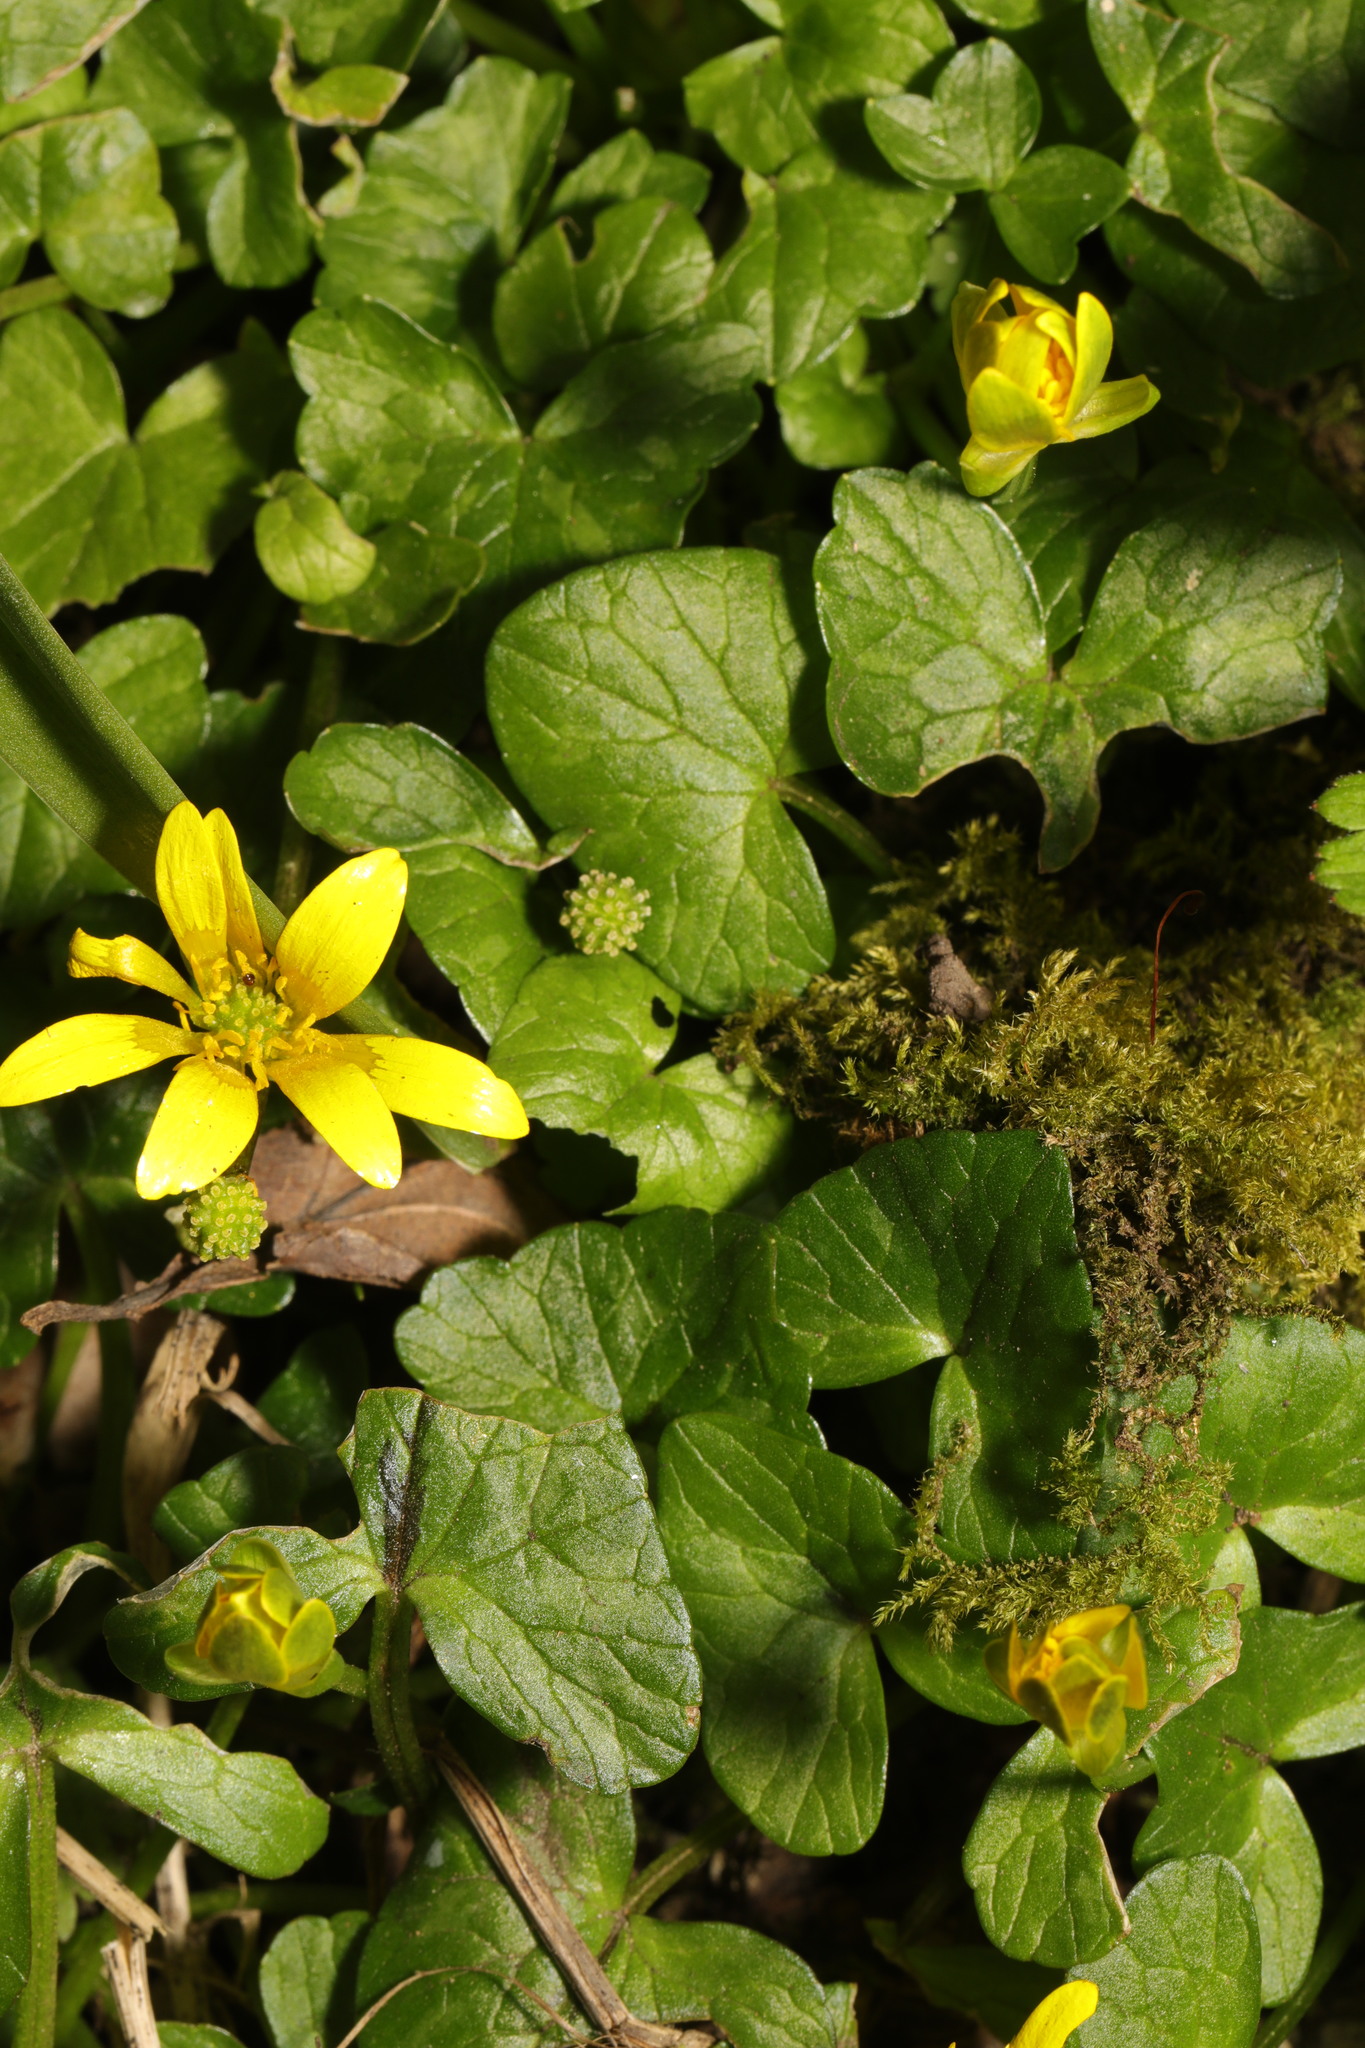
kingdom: Plantae
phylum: Tracheophyta
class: Magnoliopsida
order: Ranunculales
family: Ranunculaceae
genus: Ficaria
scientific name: Ficaria verna
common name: Lesser celandine
